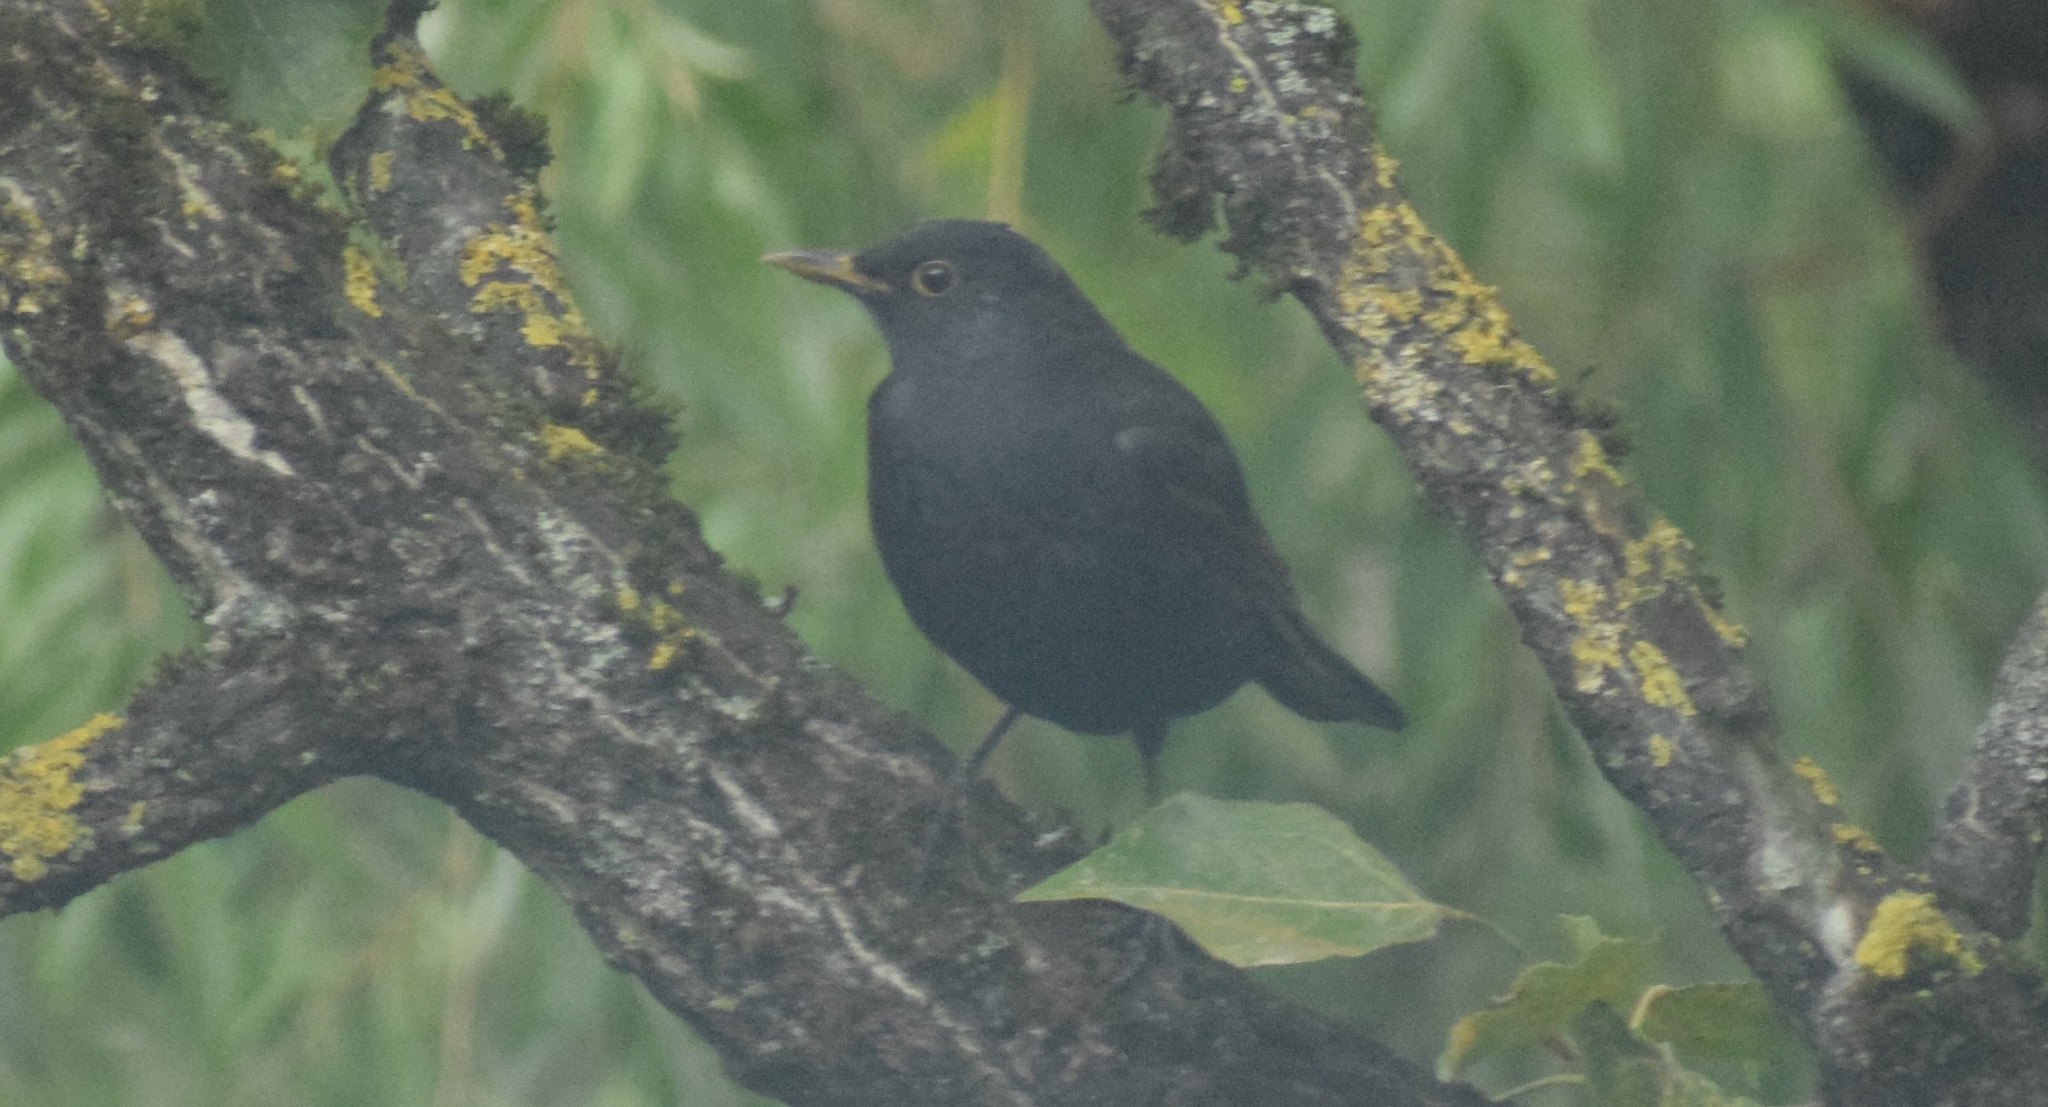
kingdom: Animalia
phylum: Chordata
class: Aves
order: Passeriformes
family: Turdidae
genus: Turdus
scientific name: Turdus merula
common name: Common blackbird
